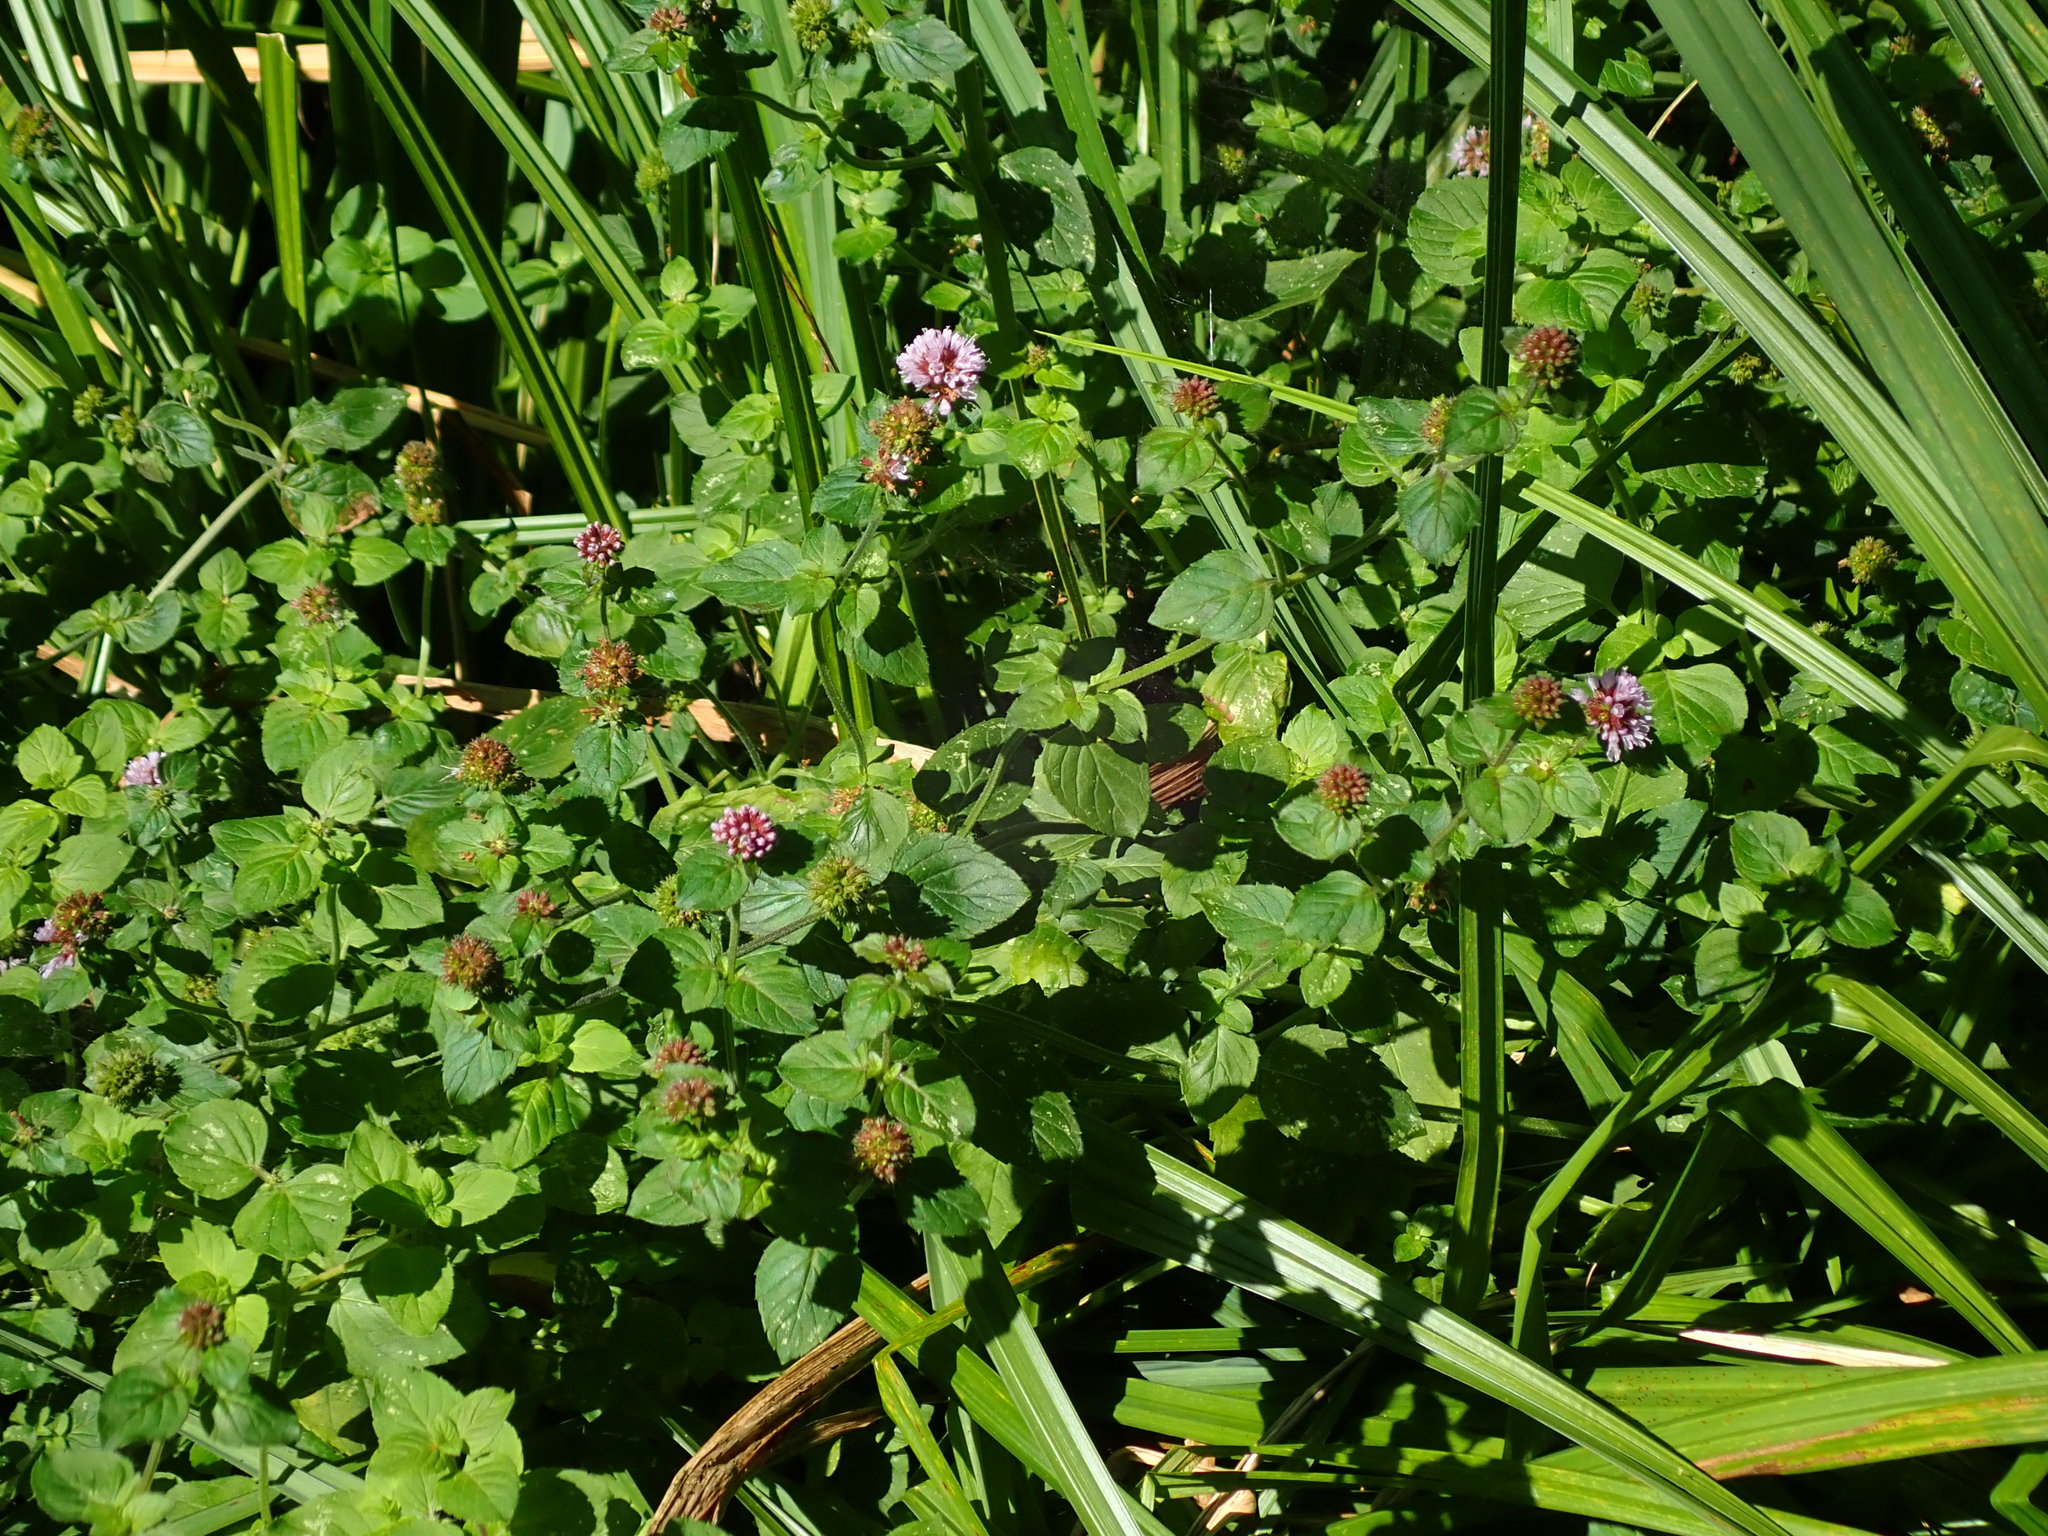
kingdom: Plantae
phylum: Tracheophyta
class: Magnoliopsida
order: Lamiales
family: Lamiaceae
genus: Mentha
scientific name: Mentha aquatica
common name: Water mint
